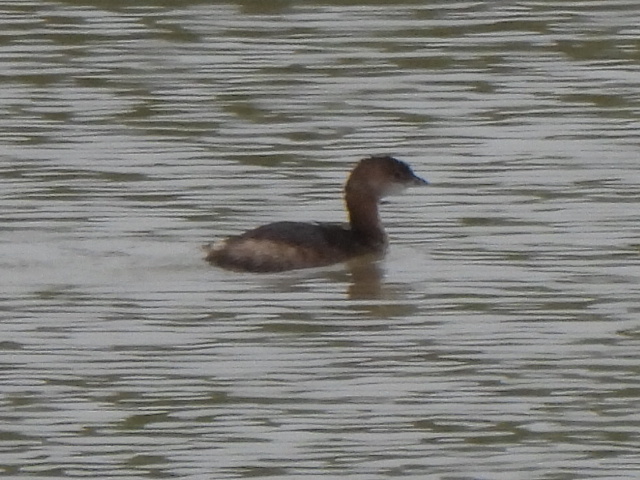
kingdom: Animalia
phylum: Chordata
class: Aves
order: Podicipediformes
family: Podicipedidae
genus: Podilymbus
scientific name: Podilymbus podiceps
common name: Pied-billed grebe
